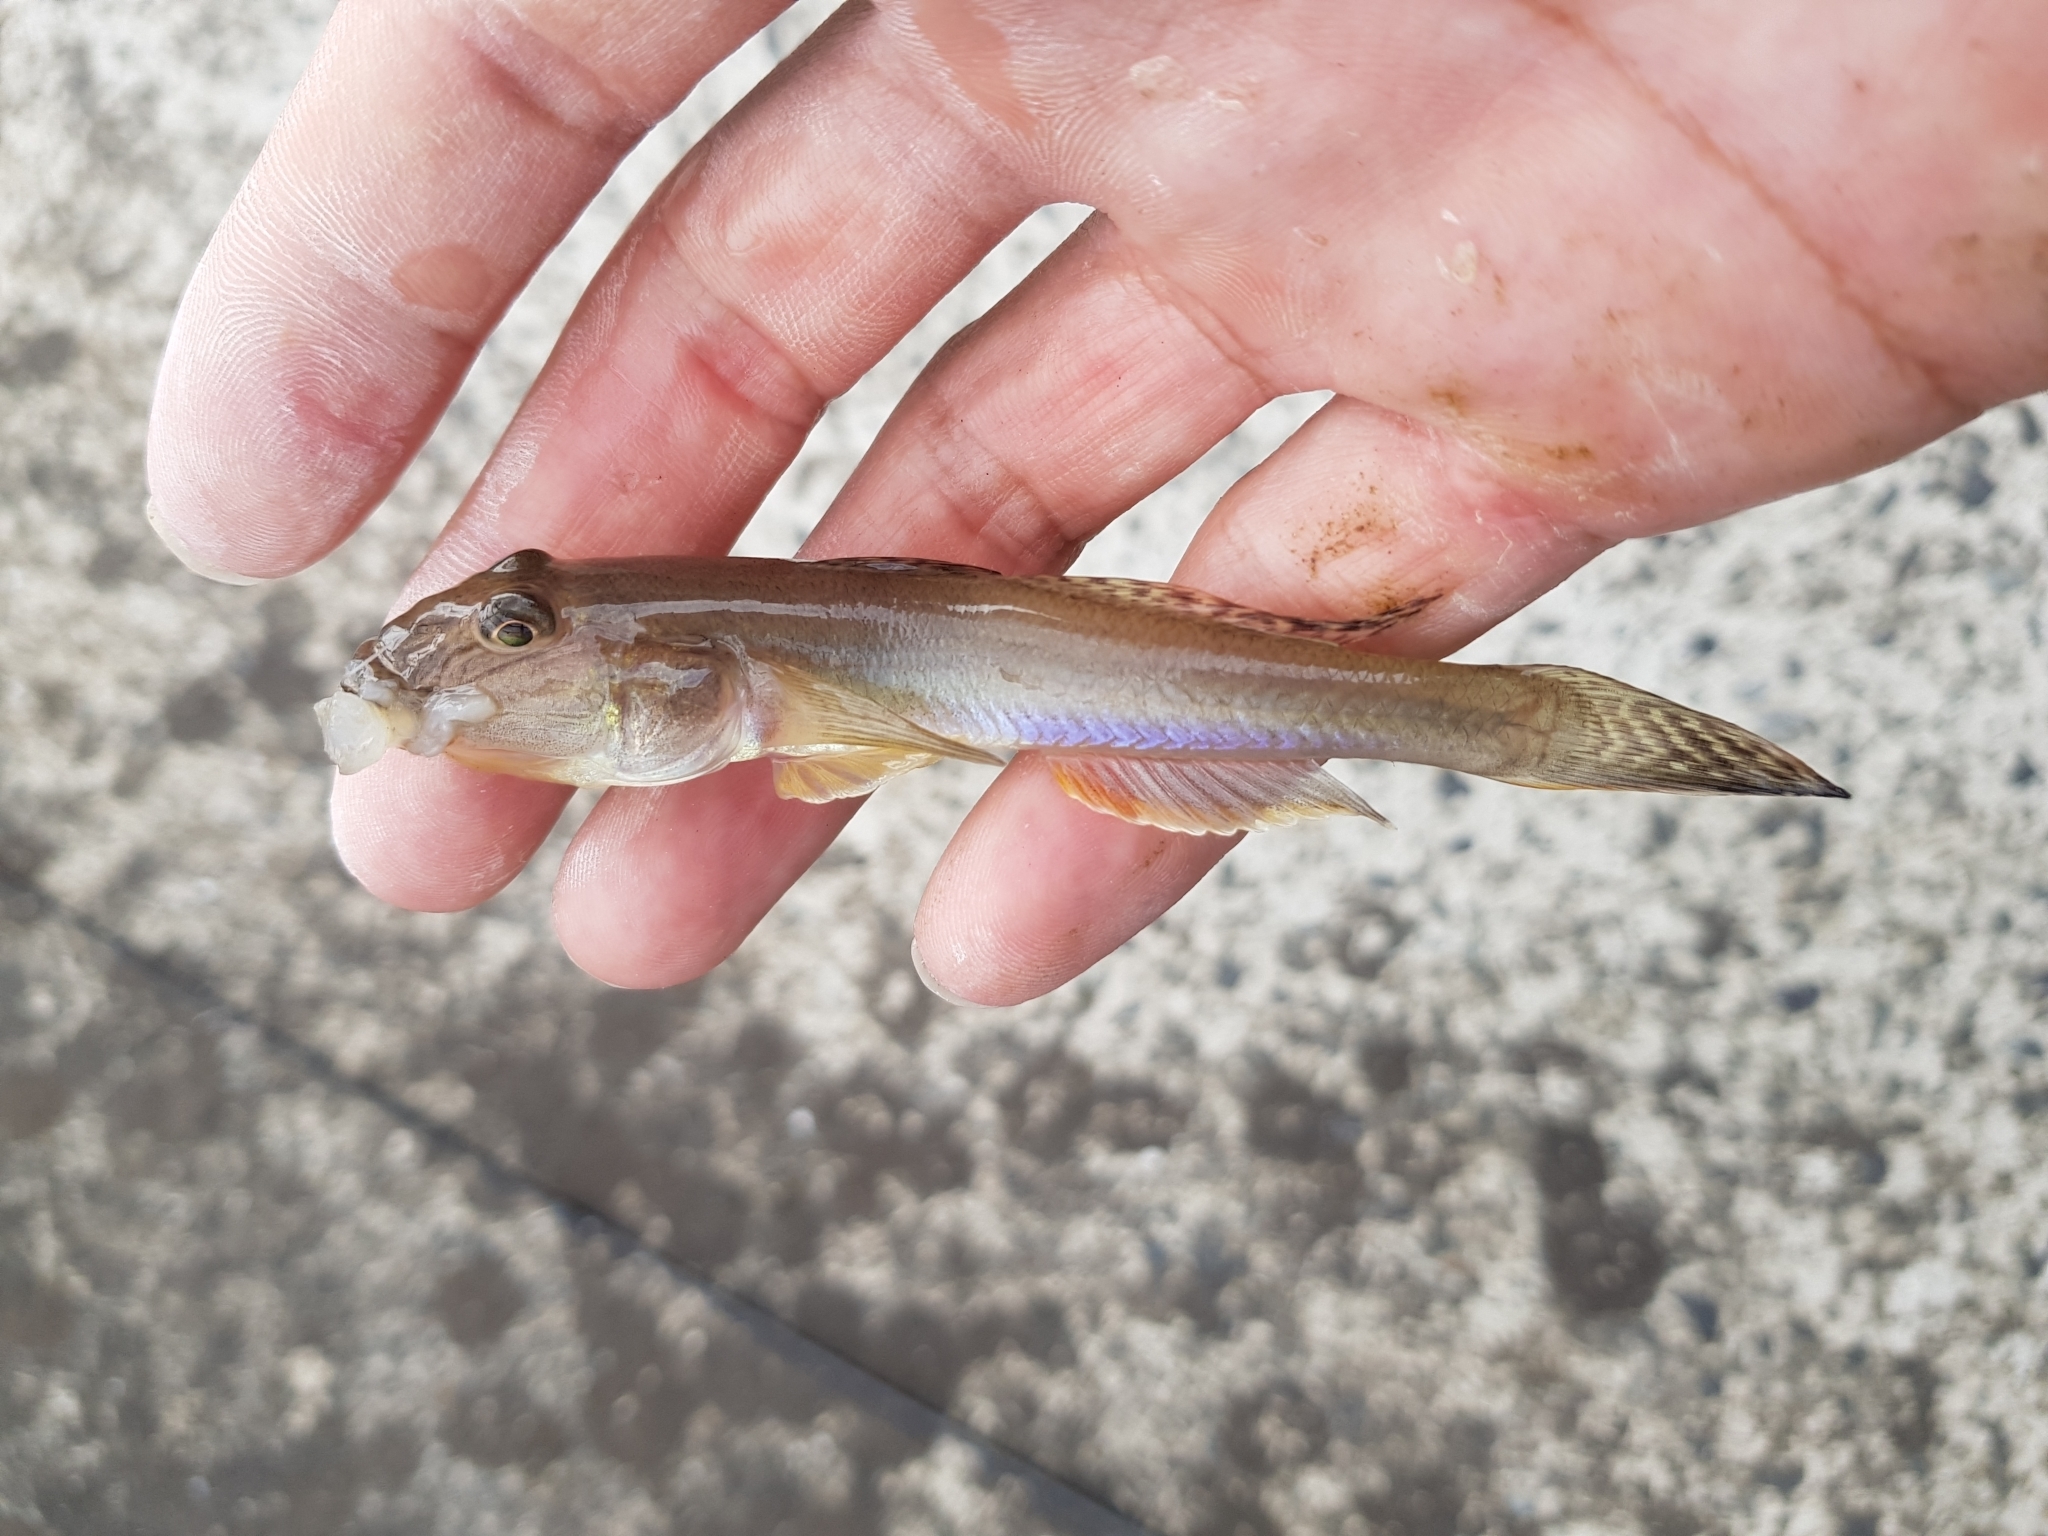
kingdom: Animalia
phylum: Chordata
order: Perciformes
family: Gobiidae
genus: Acanthogobius
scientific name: Acanthogobius flavimanus
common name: Yellowfin goby
